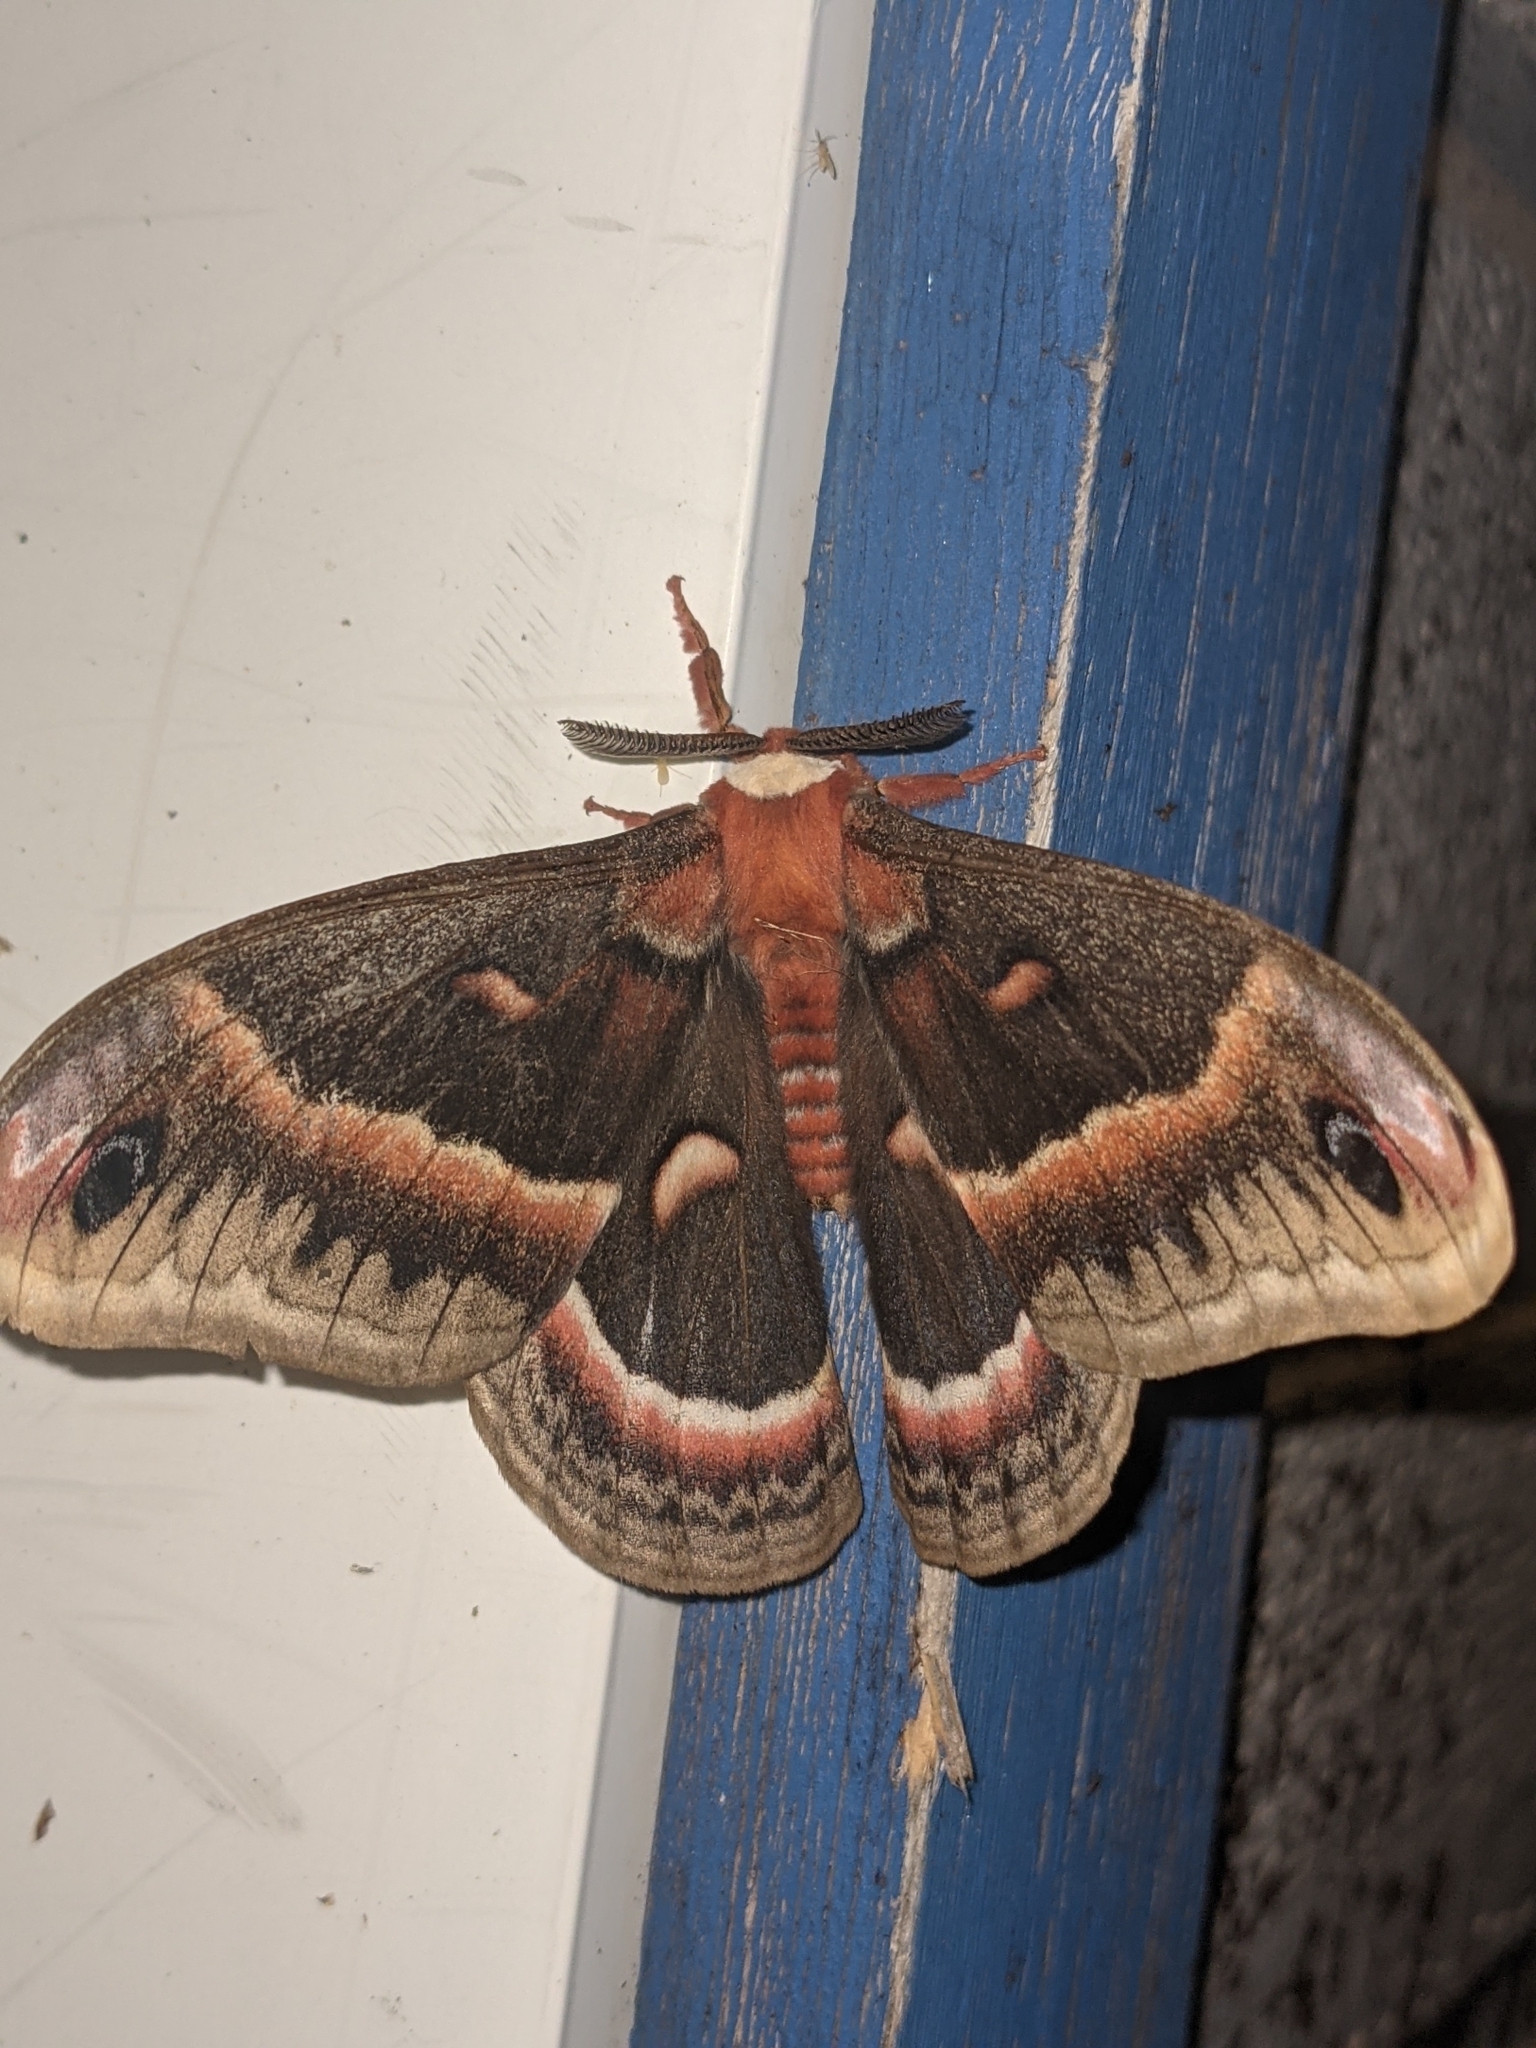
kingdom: Animalia
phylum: Arthropoda
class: Insecta
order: Lepidoptera
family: Saturniidae
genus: Hyalophora
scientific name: Hyalophora cecropia
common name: Cecropia silkmoth
